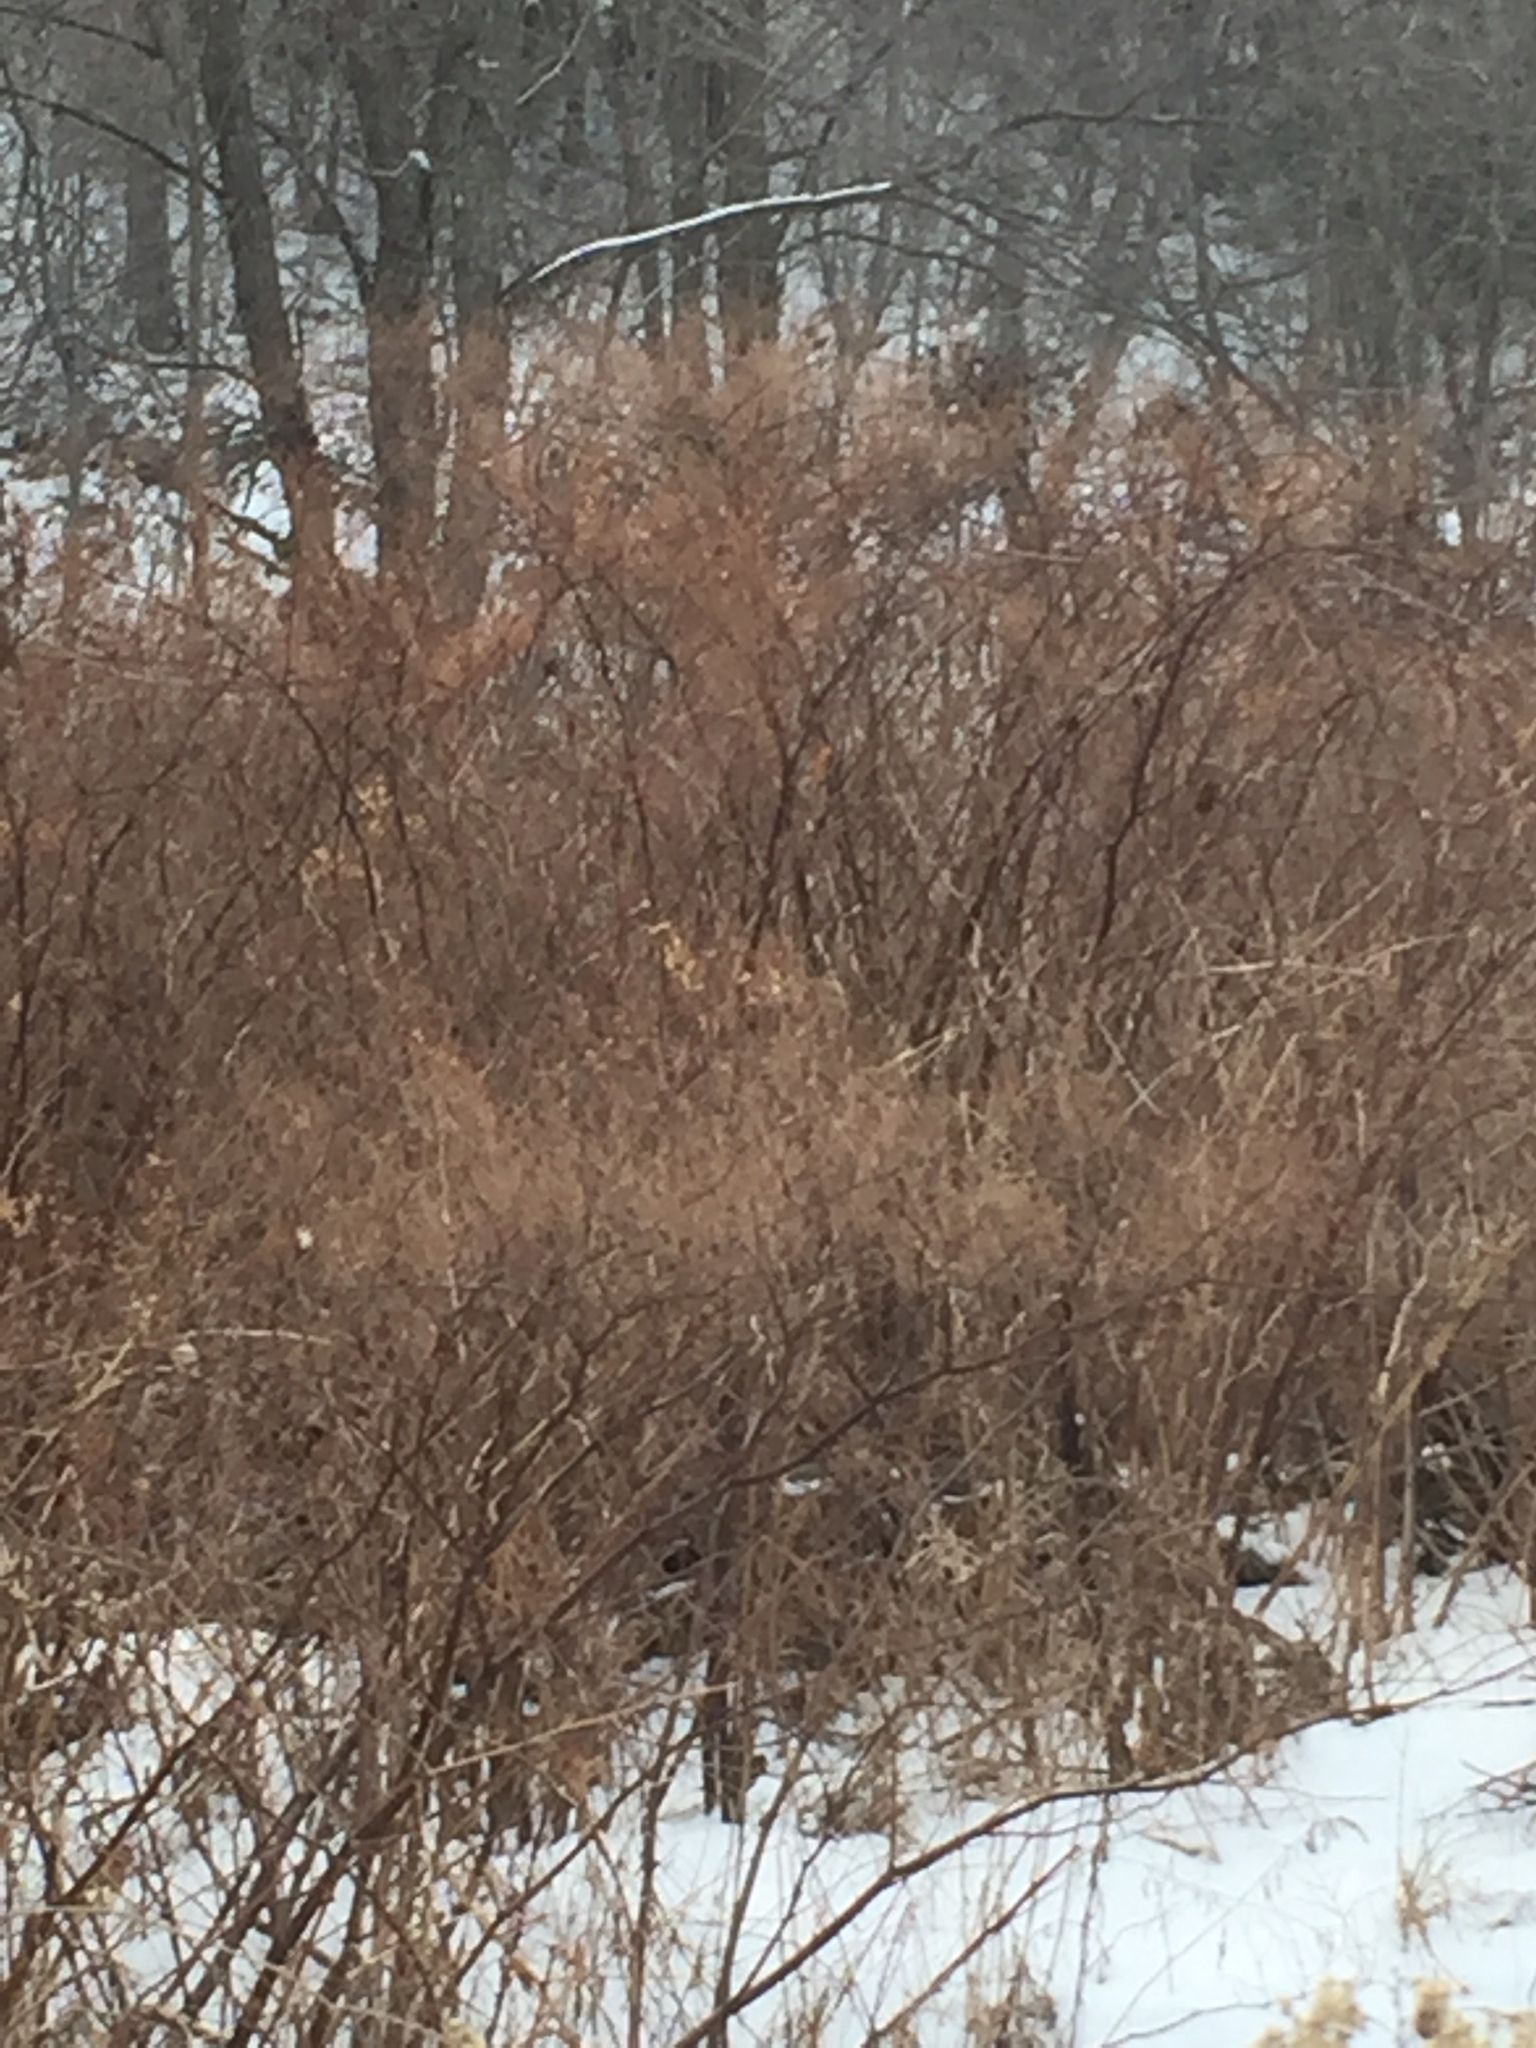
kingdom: Plantae
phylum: Tracheophyta
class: Magnoliopsida
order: Caryophyllales
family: Polygonaceae
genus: Reynoutria
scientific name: Reynoutria japonica
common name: Japanese knotweed
